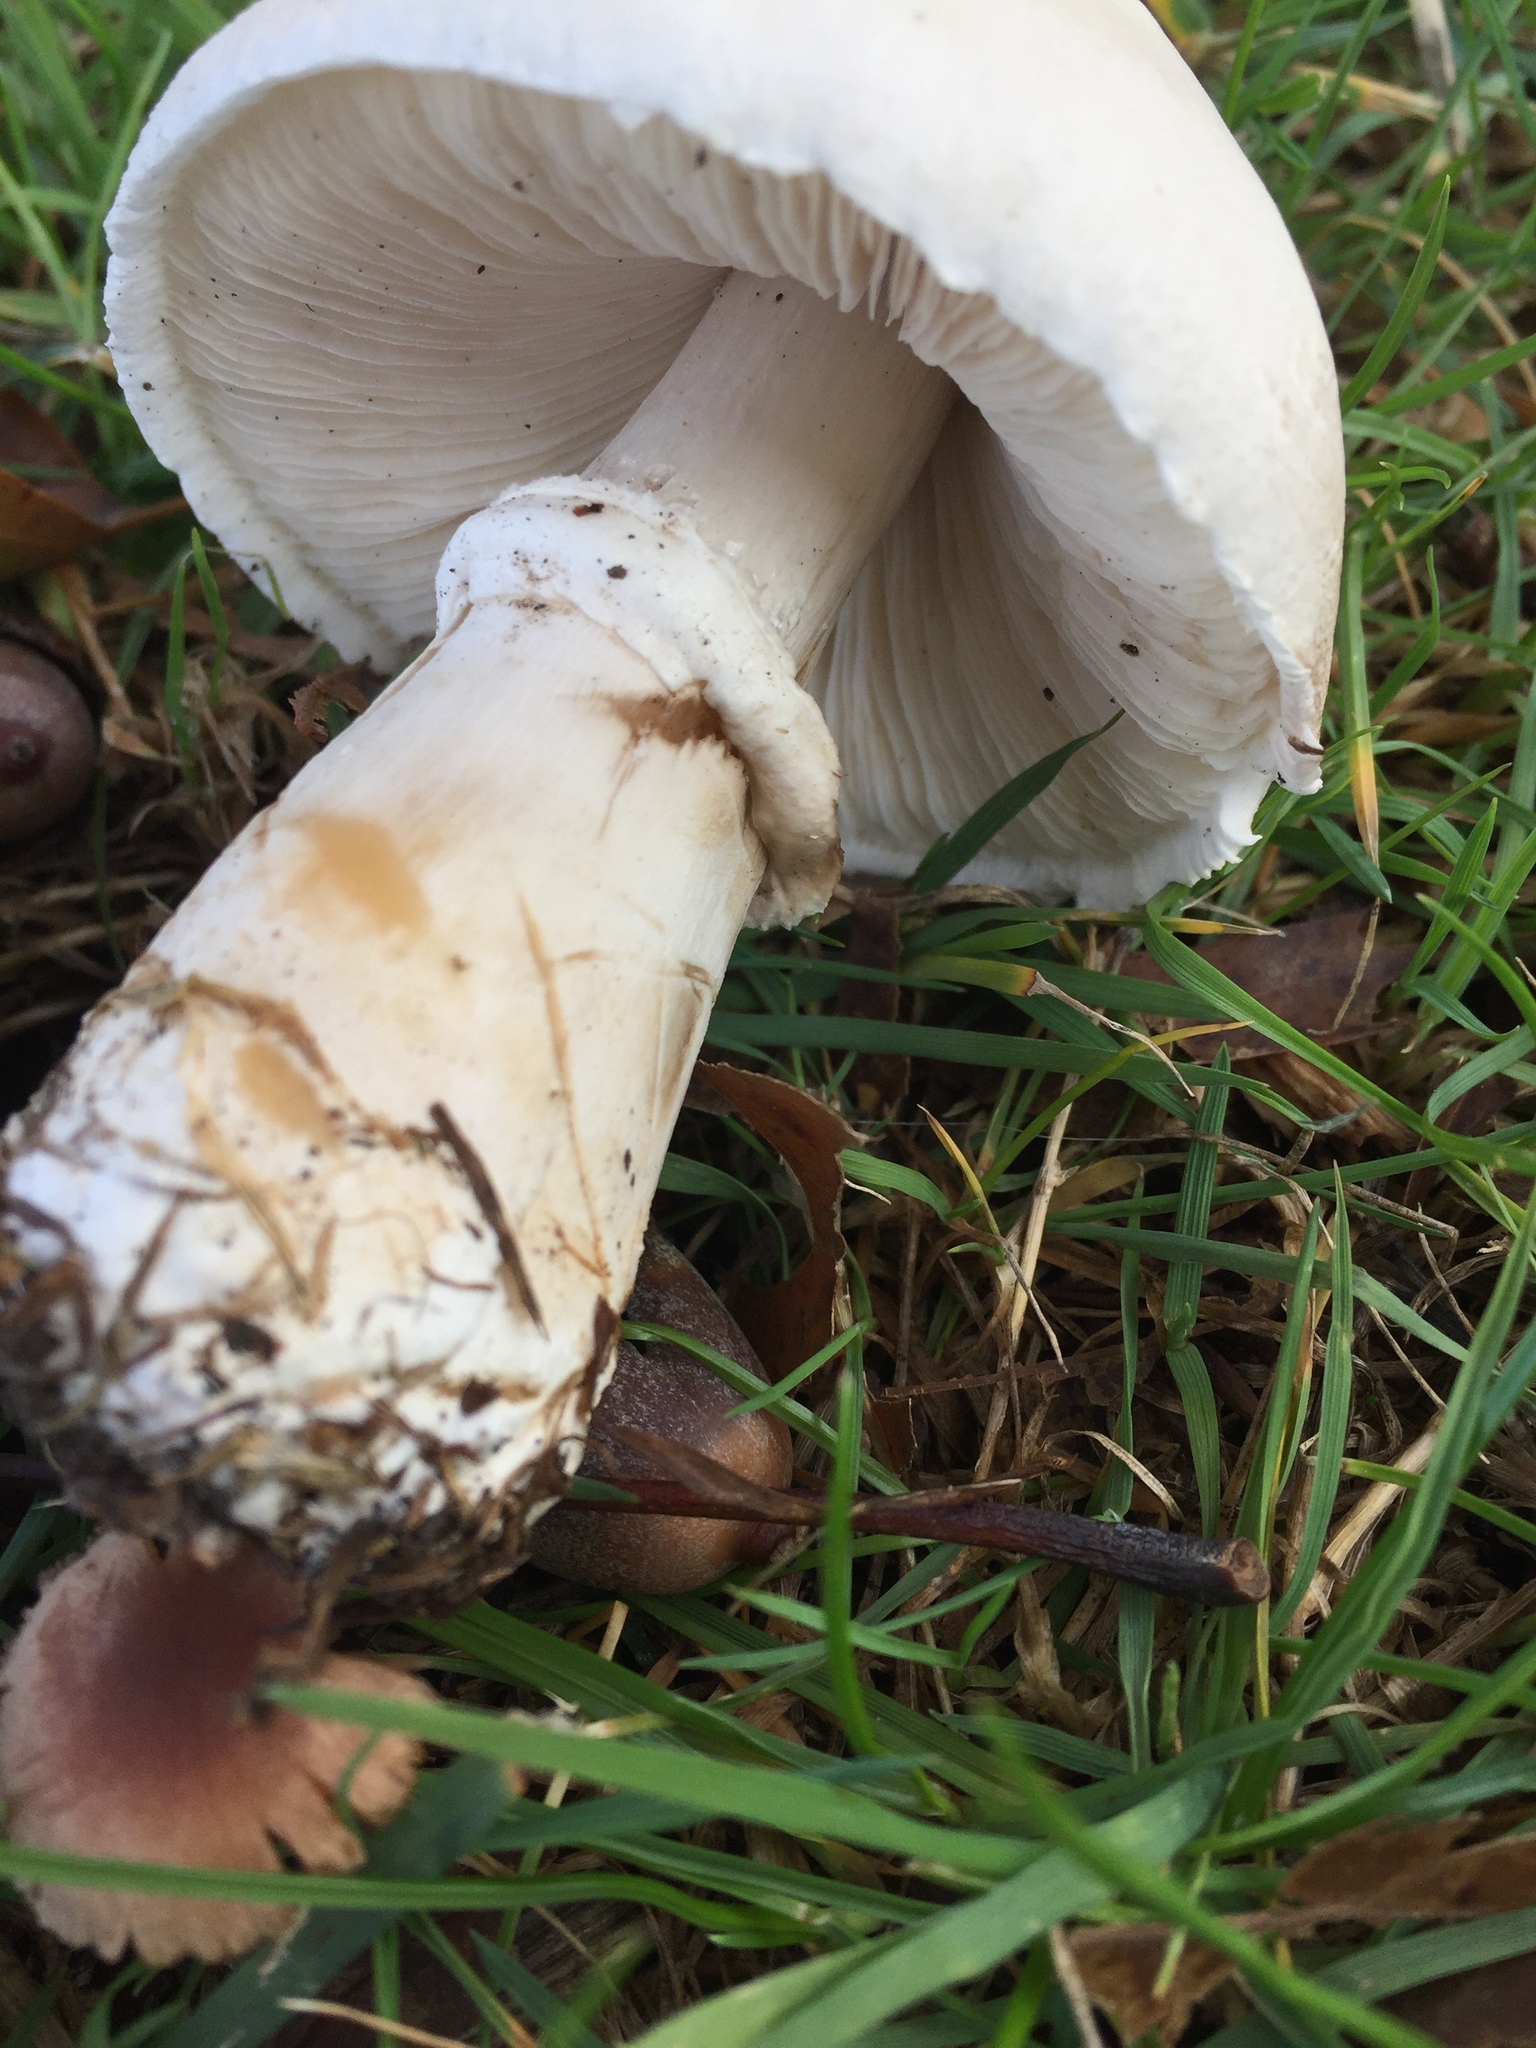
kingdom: Fungi
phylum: Basidiomycota
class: Agaricomycetes
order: Agaricales
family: Agaricaceae
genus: Leucoagaricus
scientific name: Leucoagaricus leucothites
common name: White dapperling
